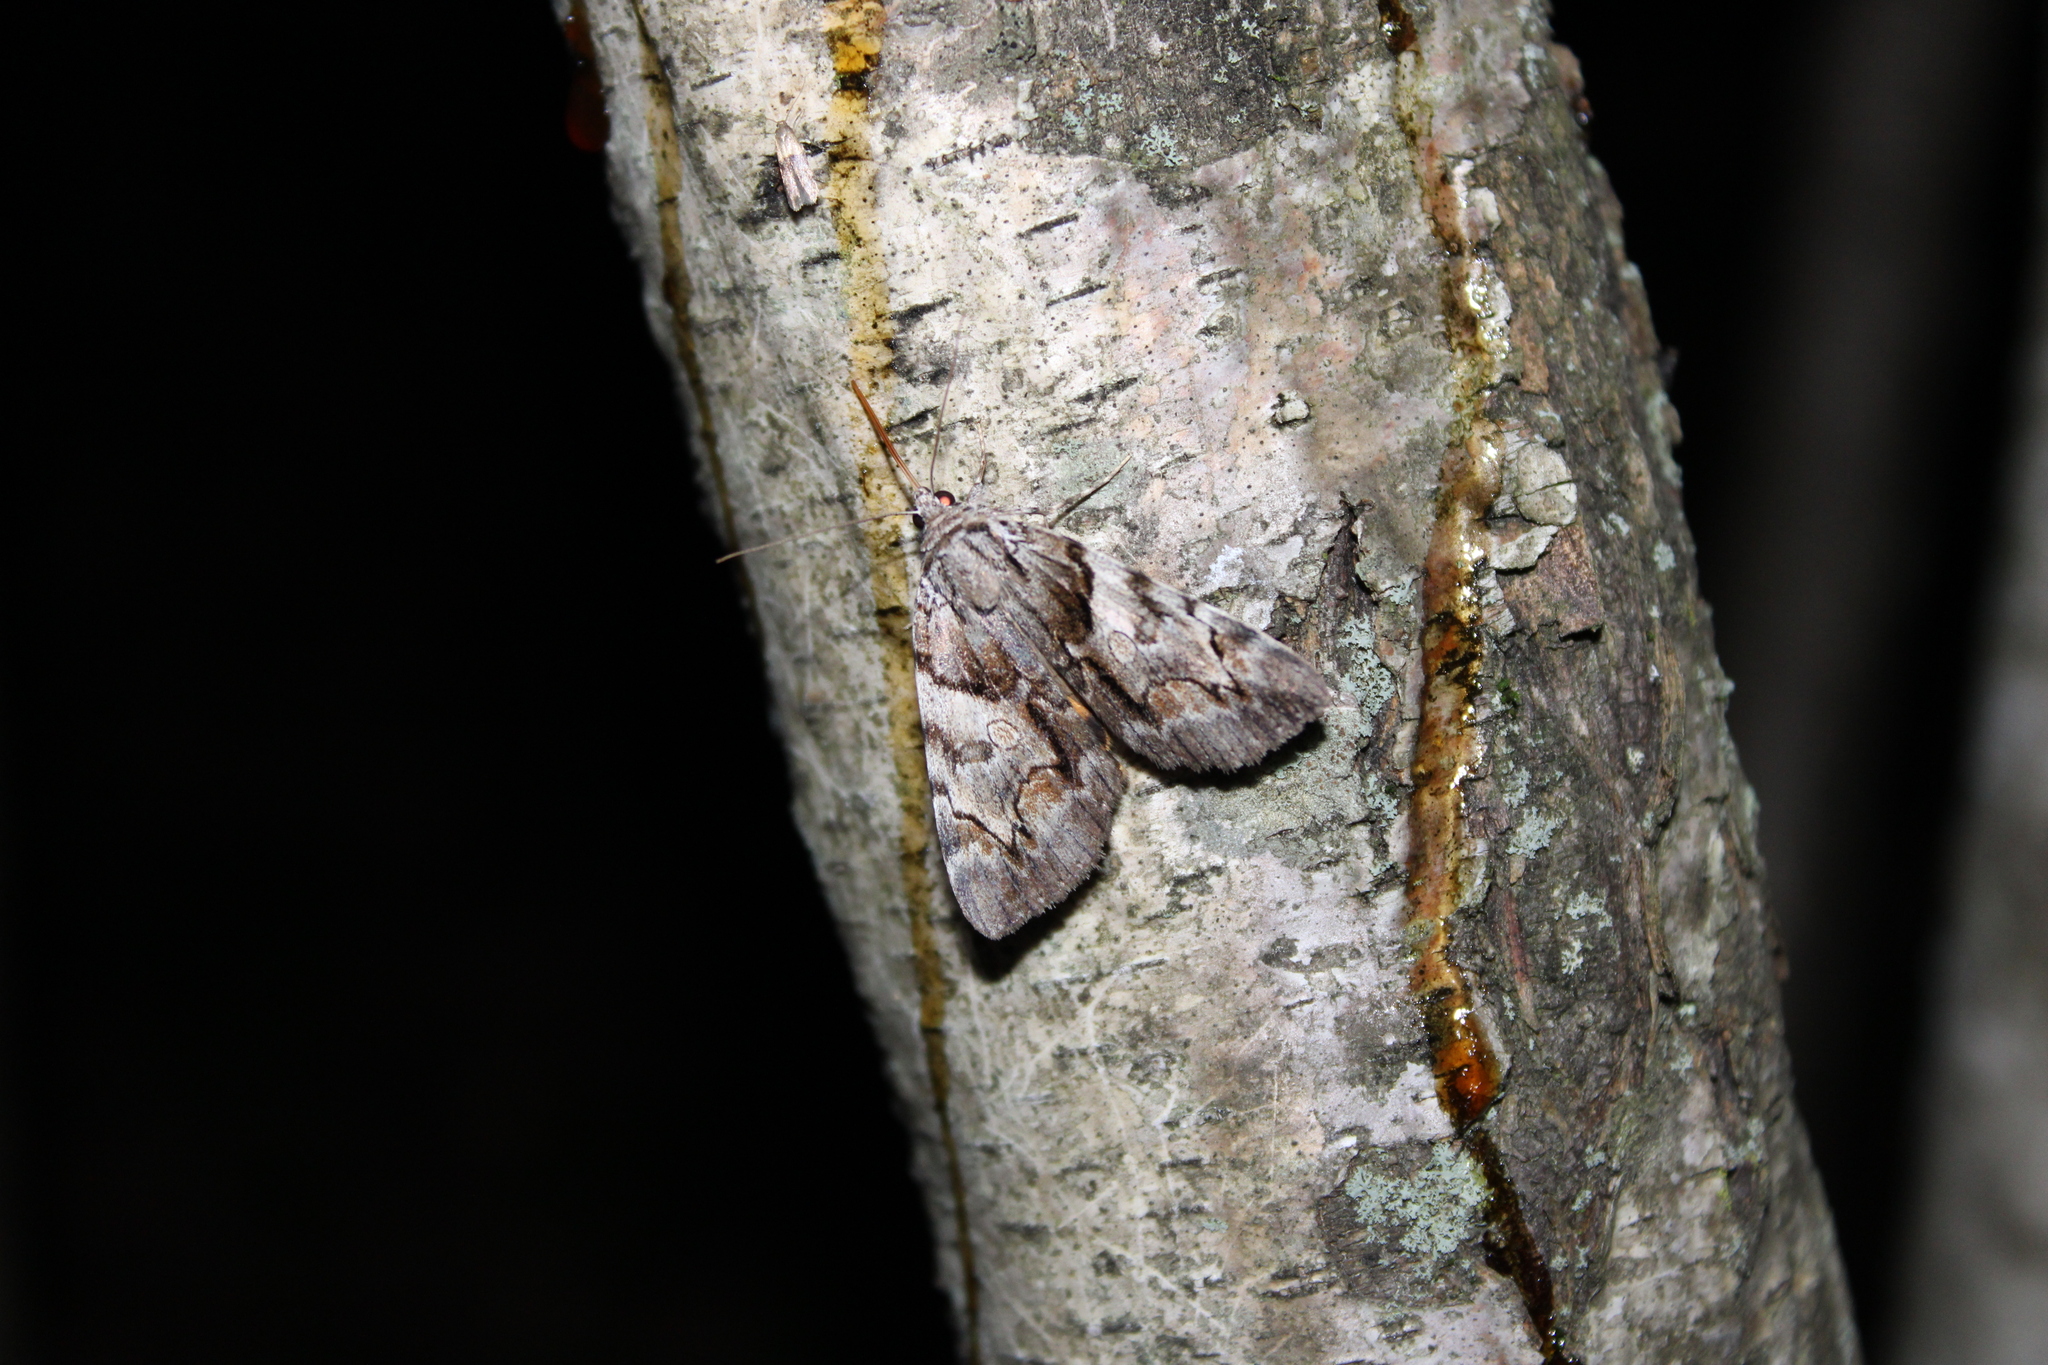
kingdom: Animalia
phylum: Arthropoda
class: Insecta
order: Lepidoptera
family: Erebidae
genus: Catocala
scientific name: Catocala blandula
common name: Charming underwing
